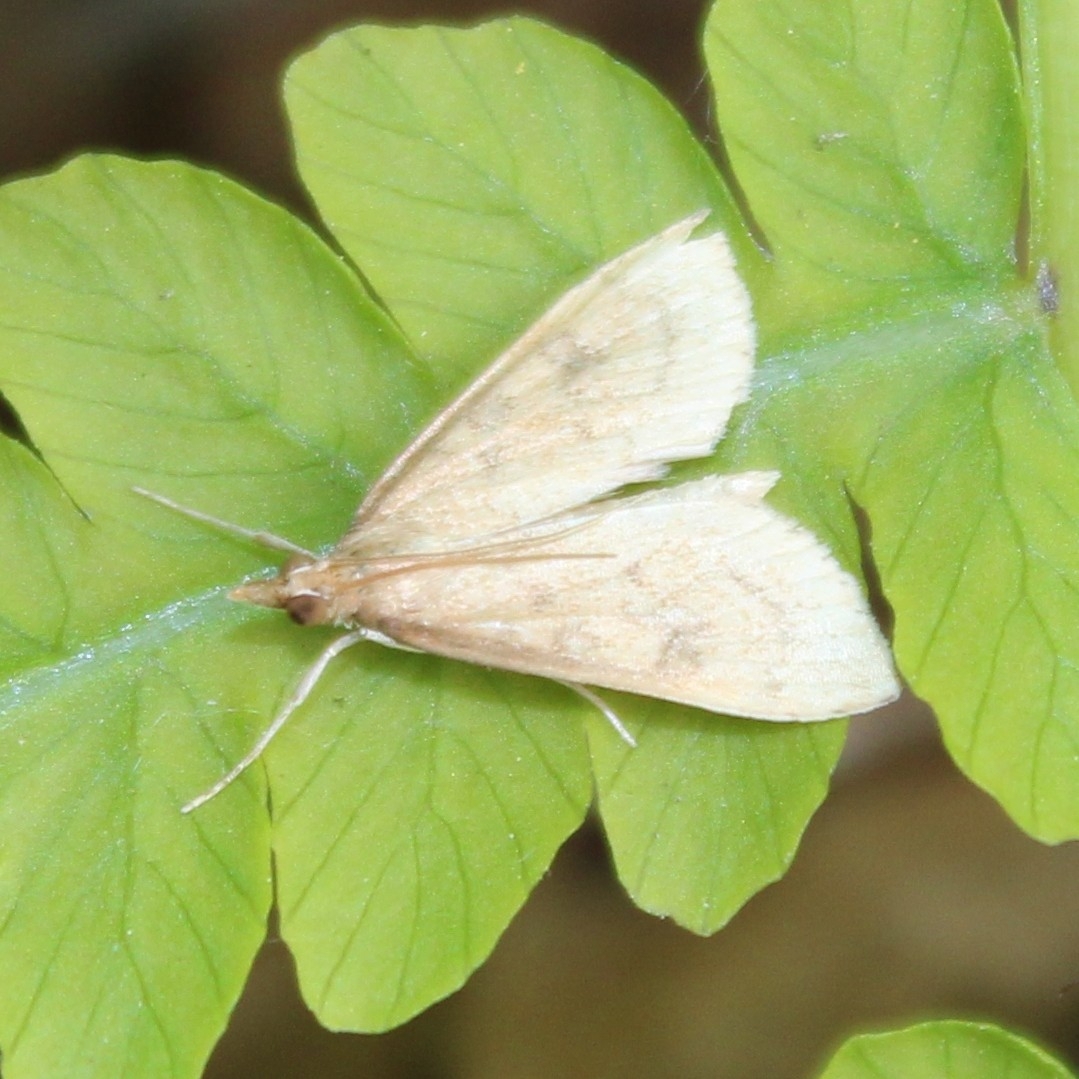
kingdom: Animalia
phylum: Arthropoda
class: Insecta
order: Lepidoptera
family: Crambidae
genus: Udea
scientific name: Udea rubigalis
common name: Celery leaftier moth
